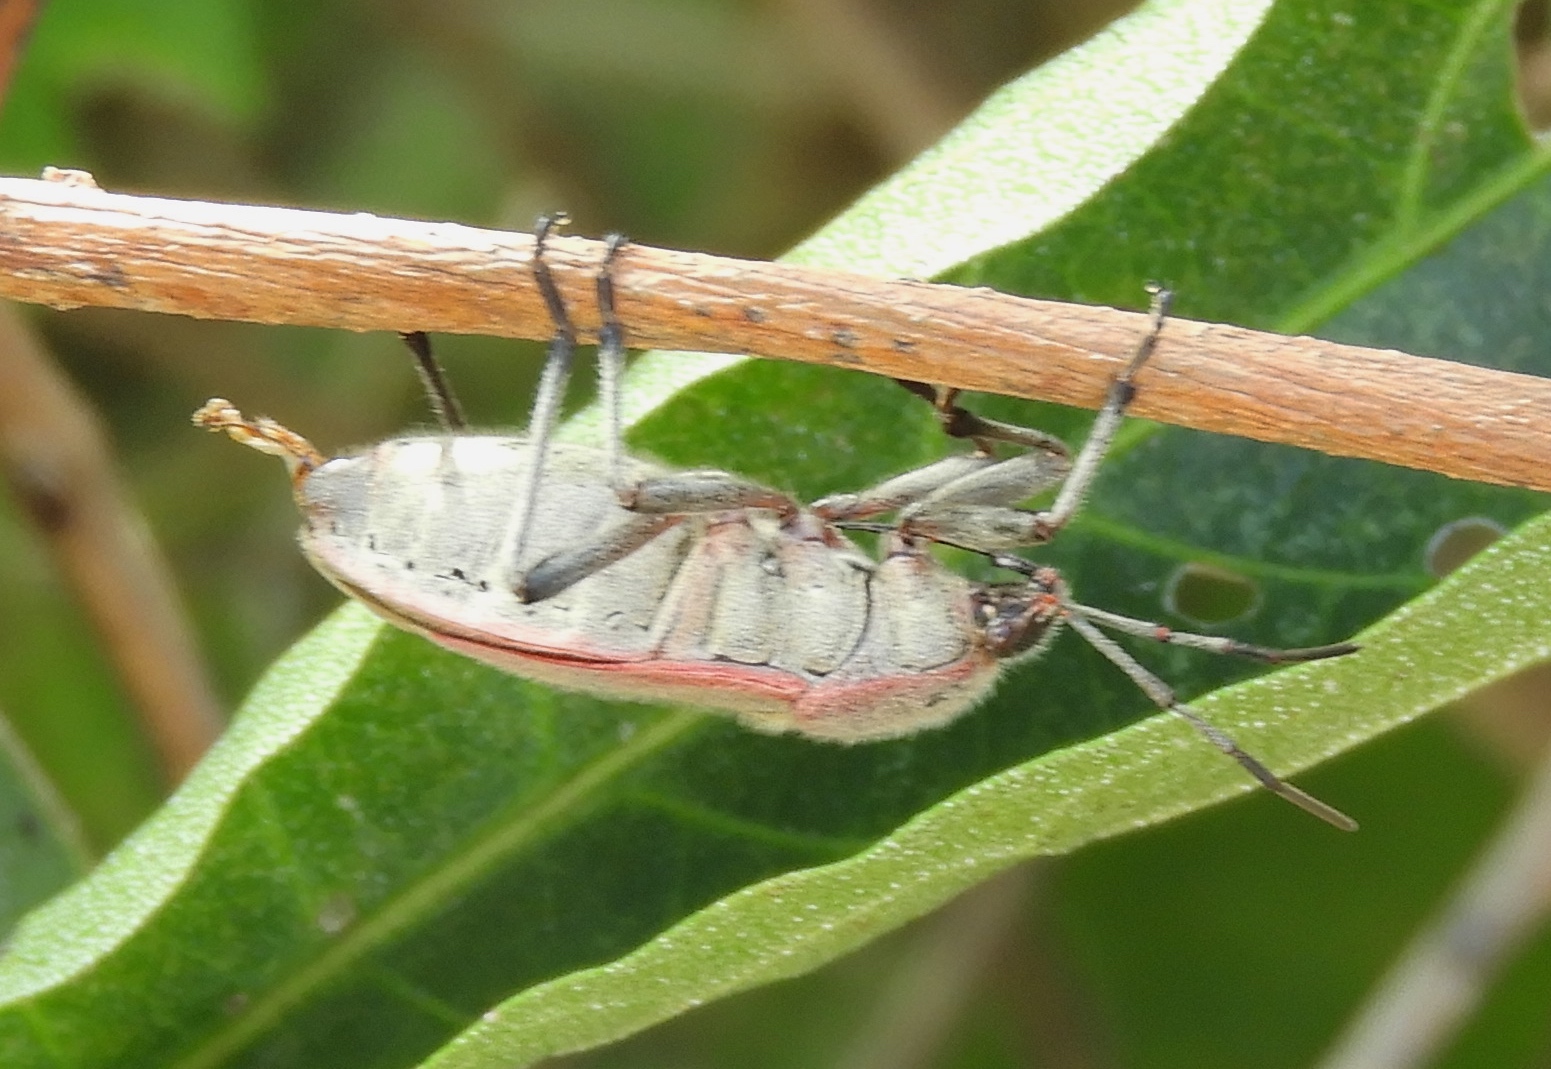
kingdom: Animalia
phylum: Arthropoda
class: Insecta
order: Hemiptera
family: Largidae
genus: Largus
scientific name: Largus
